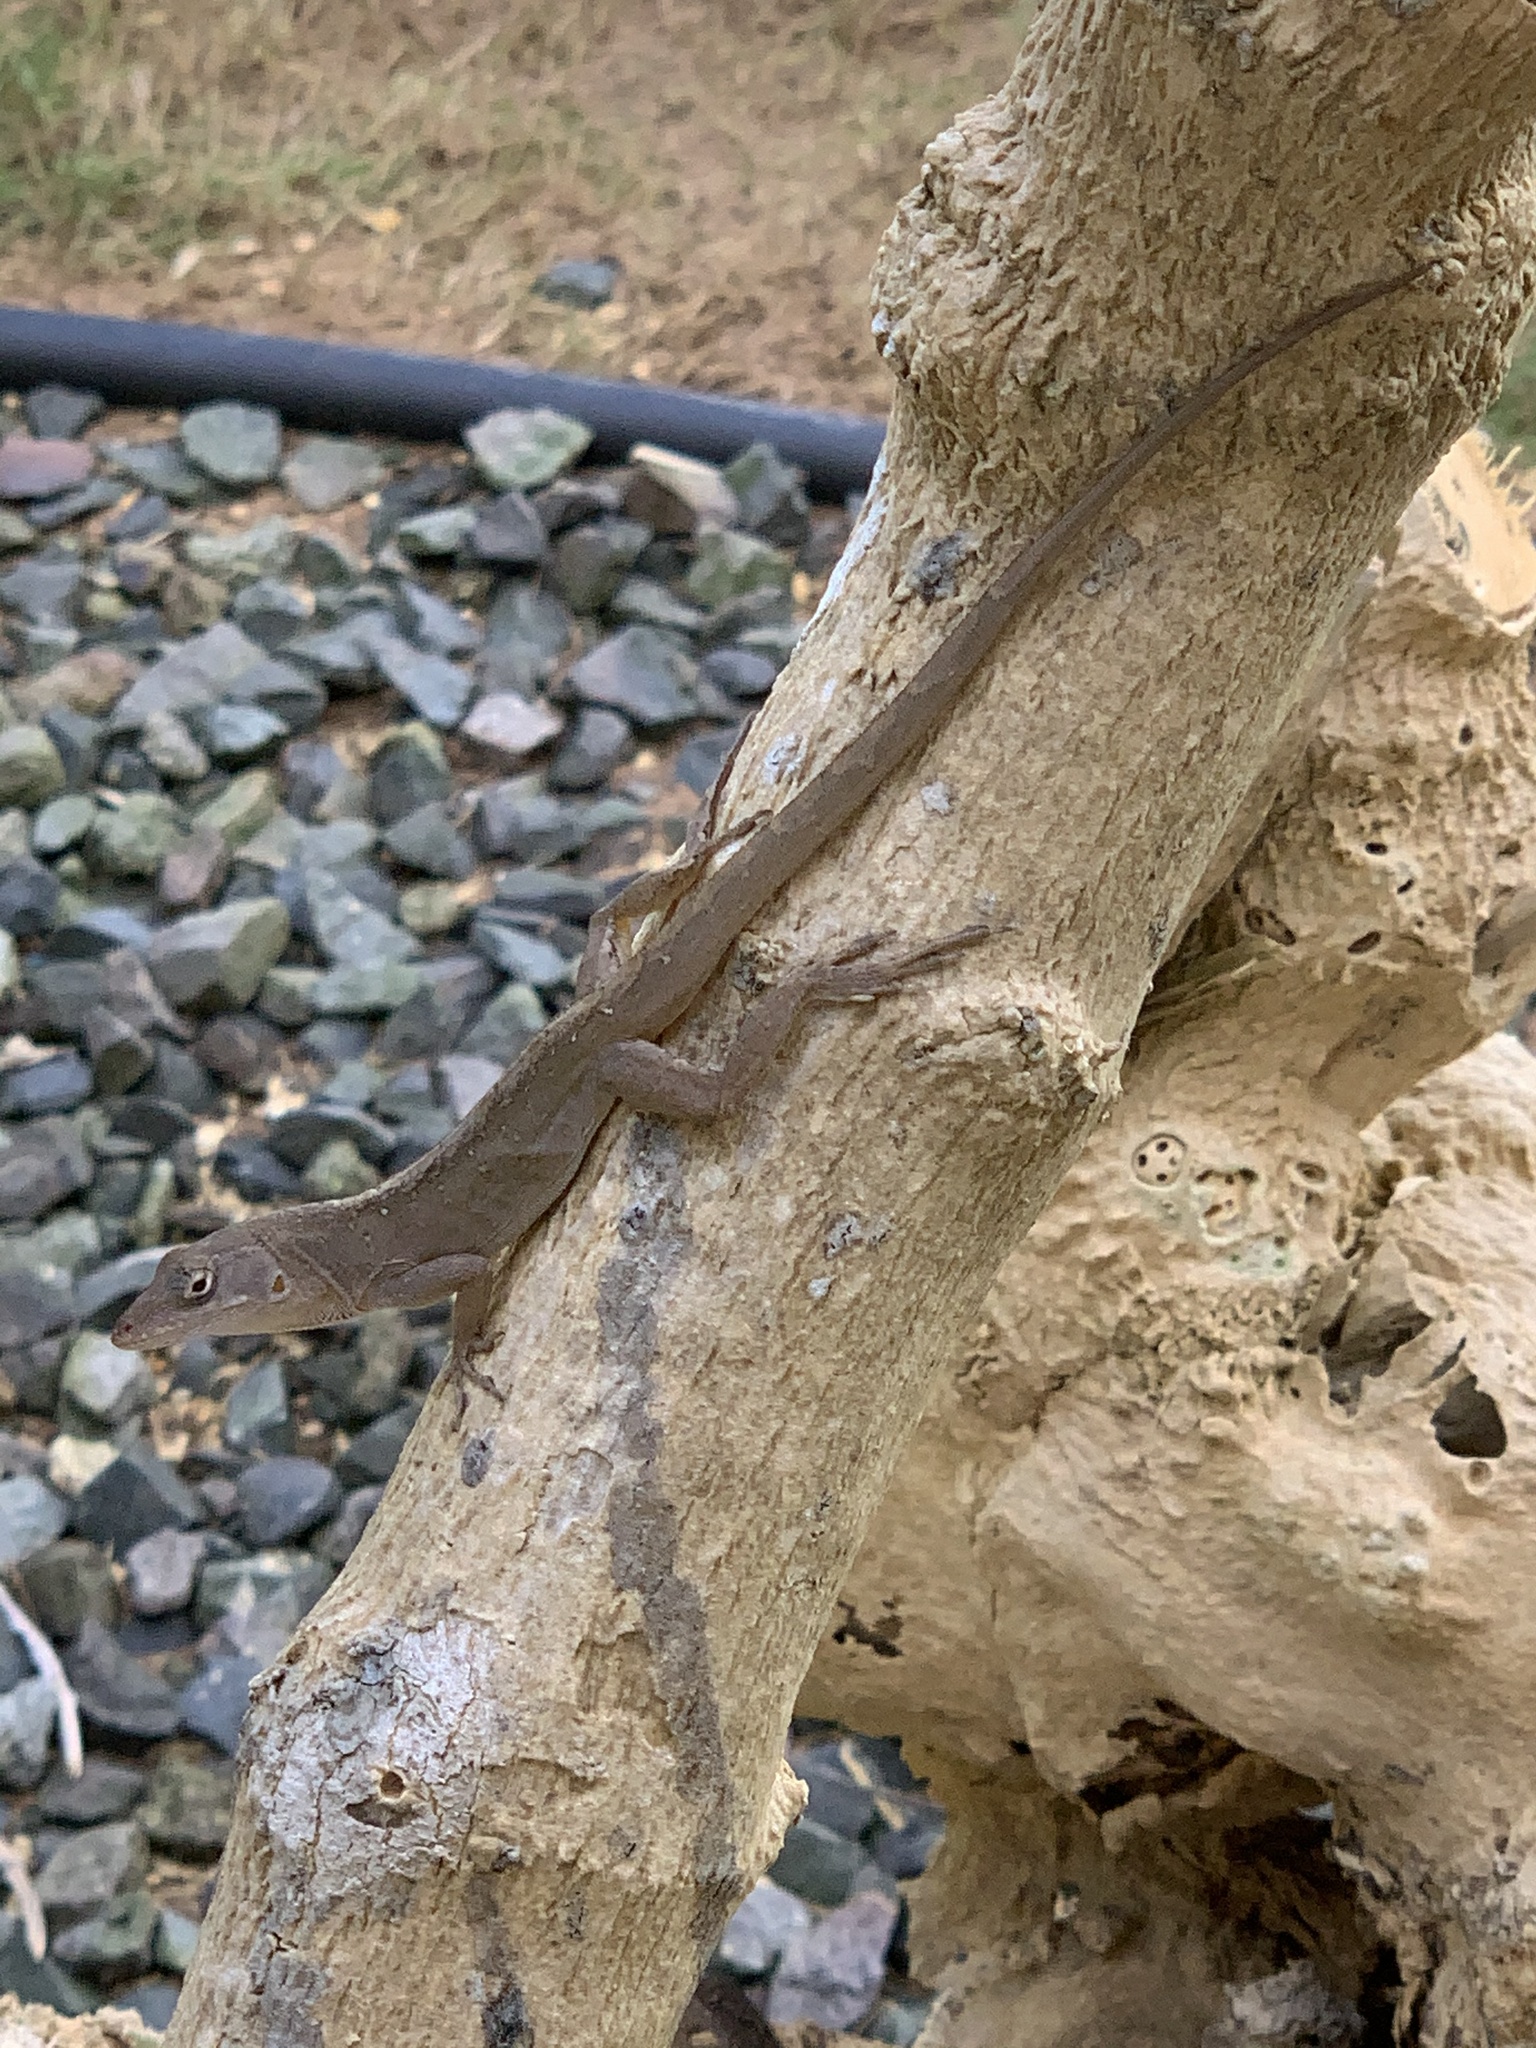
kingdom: Animalia
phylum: Chordata
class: Squamata
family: Dactyloidae
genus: Anolis
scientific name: Anolis sagrei
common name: Brown anole
